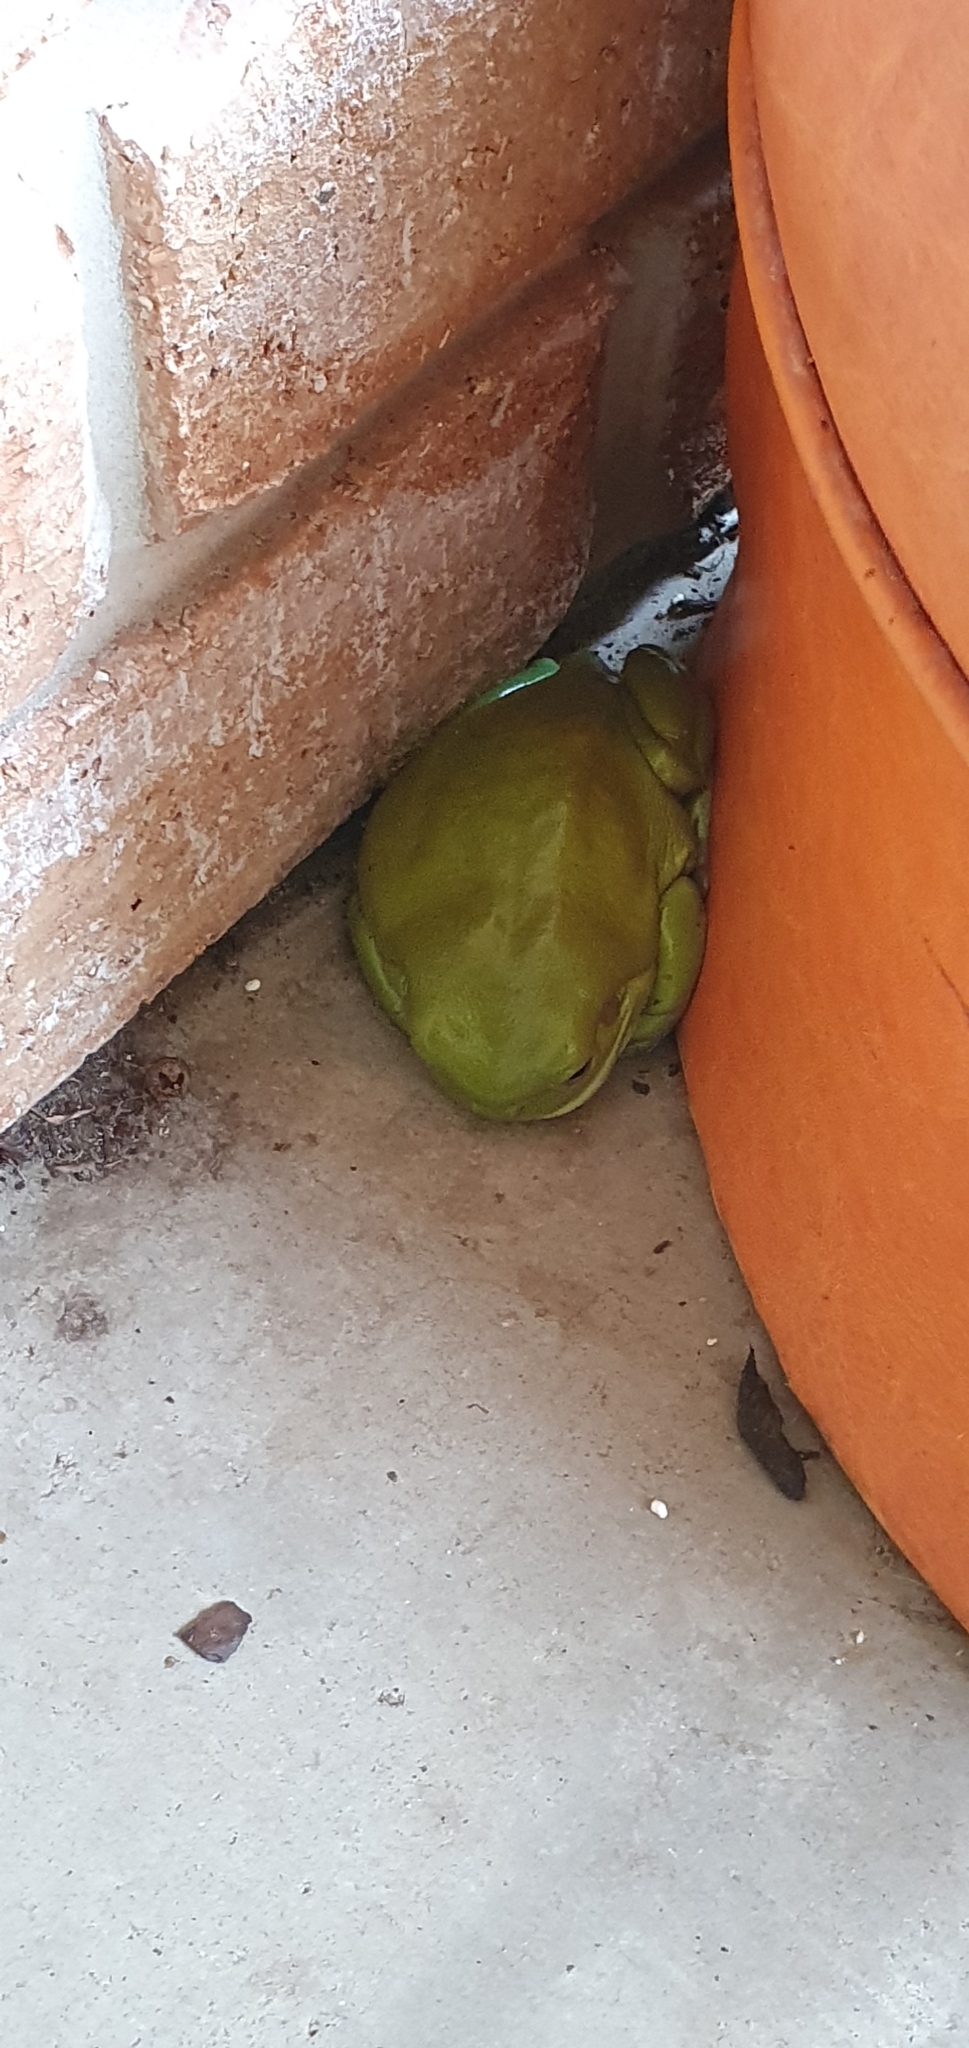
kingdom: Animalia
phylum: Chordata
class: Amphibia
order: Anura
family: Pelodryadidae
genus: Ranoidea
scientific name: Ranoidea caerulea
